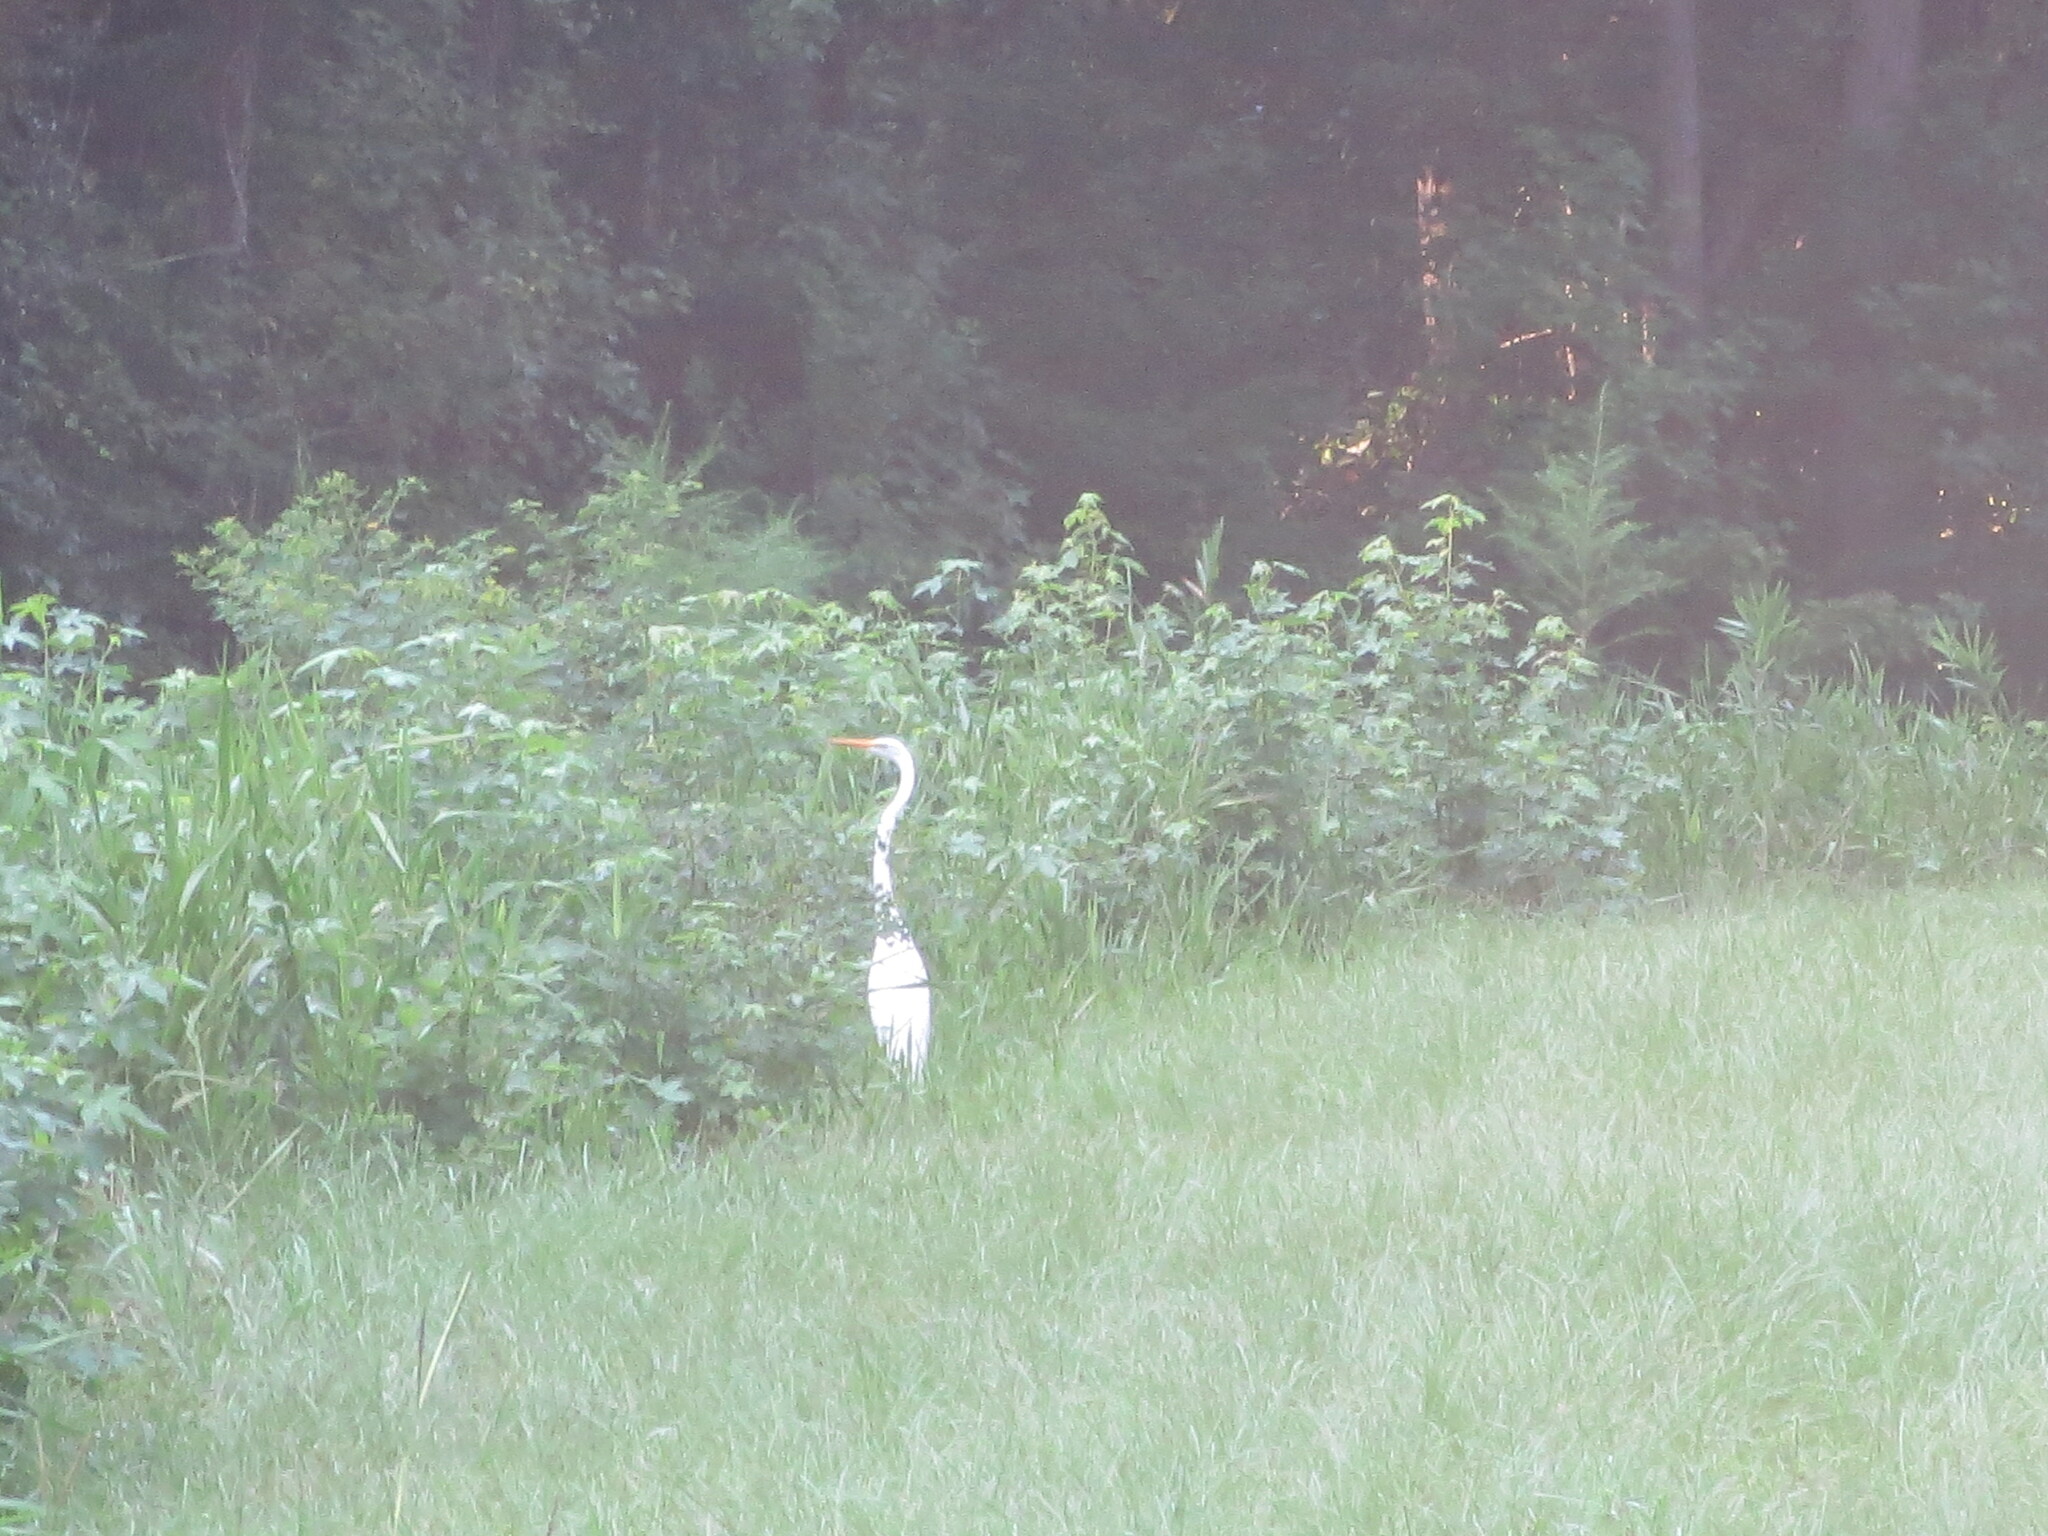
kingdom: Animalia
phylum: Chordata
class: Aves
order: Pelecaniformes
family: Ardeidae
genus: Ardea
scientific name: Ardea alba
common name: Great egret
